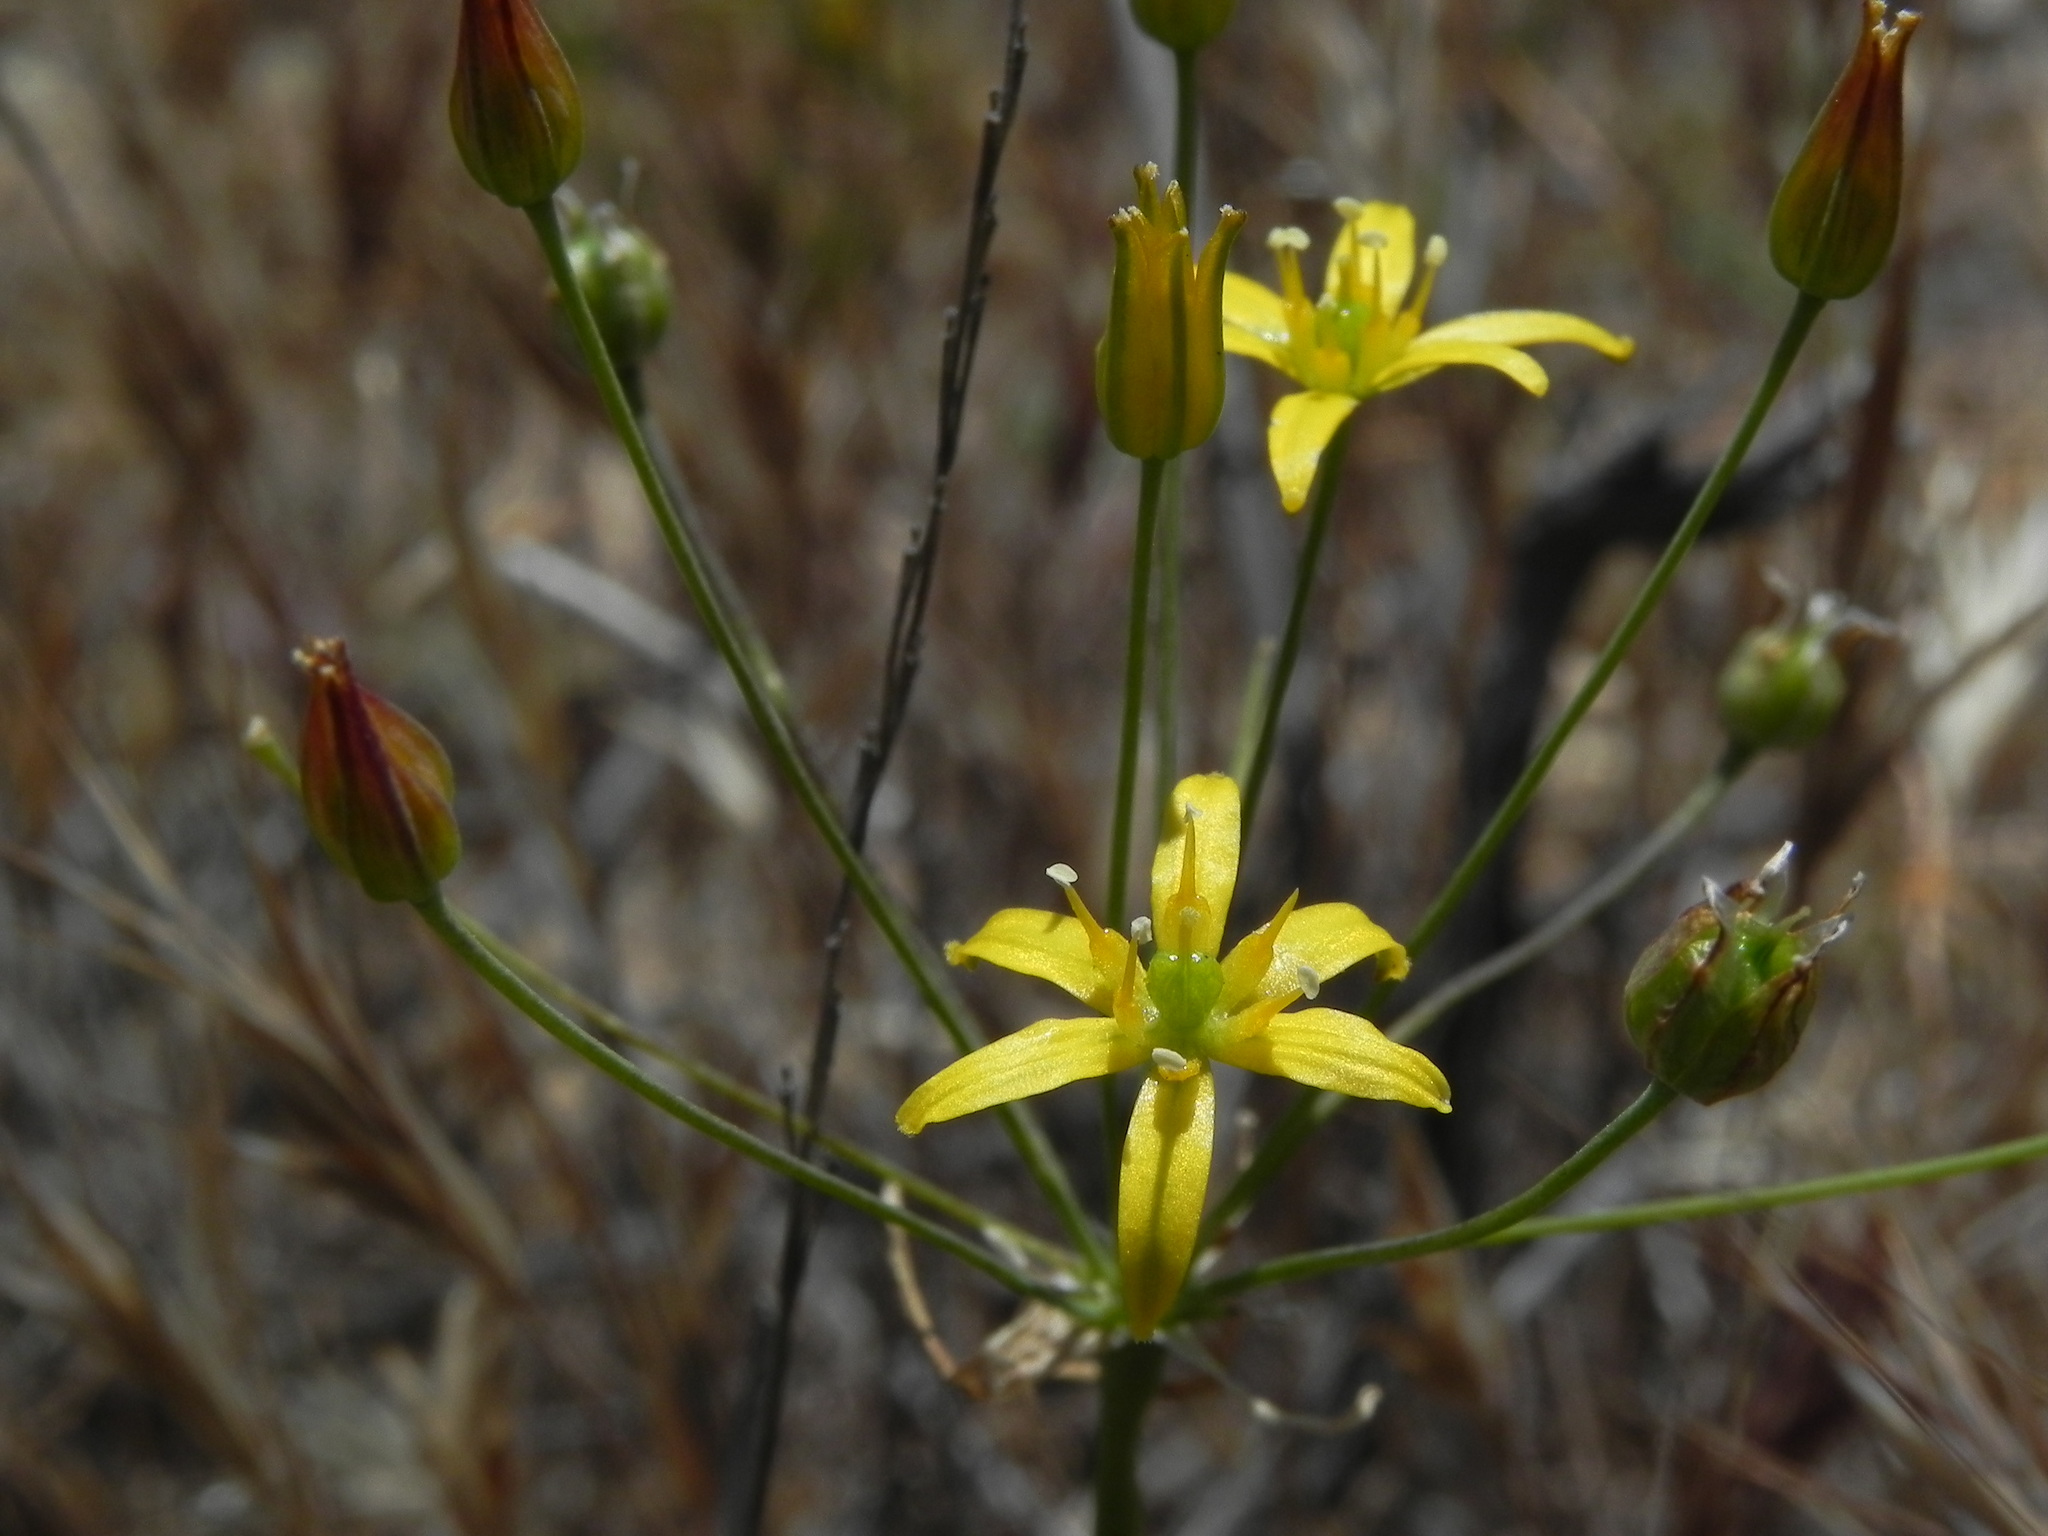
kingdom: Plantae
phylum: Tracheophyta
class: Liliopsida
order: Asparagales
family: Asparagaceae
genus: Bloomeria
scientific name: Bloomeria clevelandii
